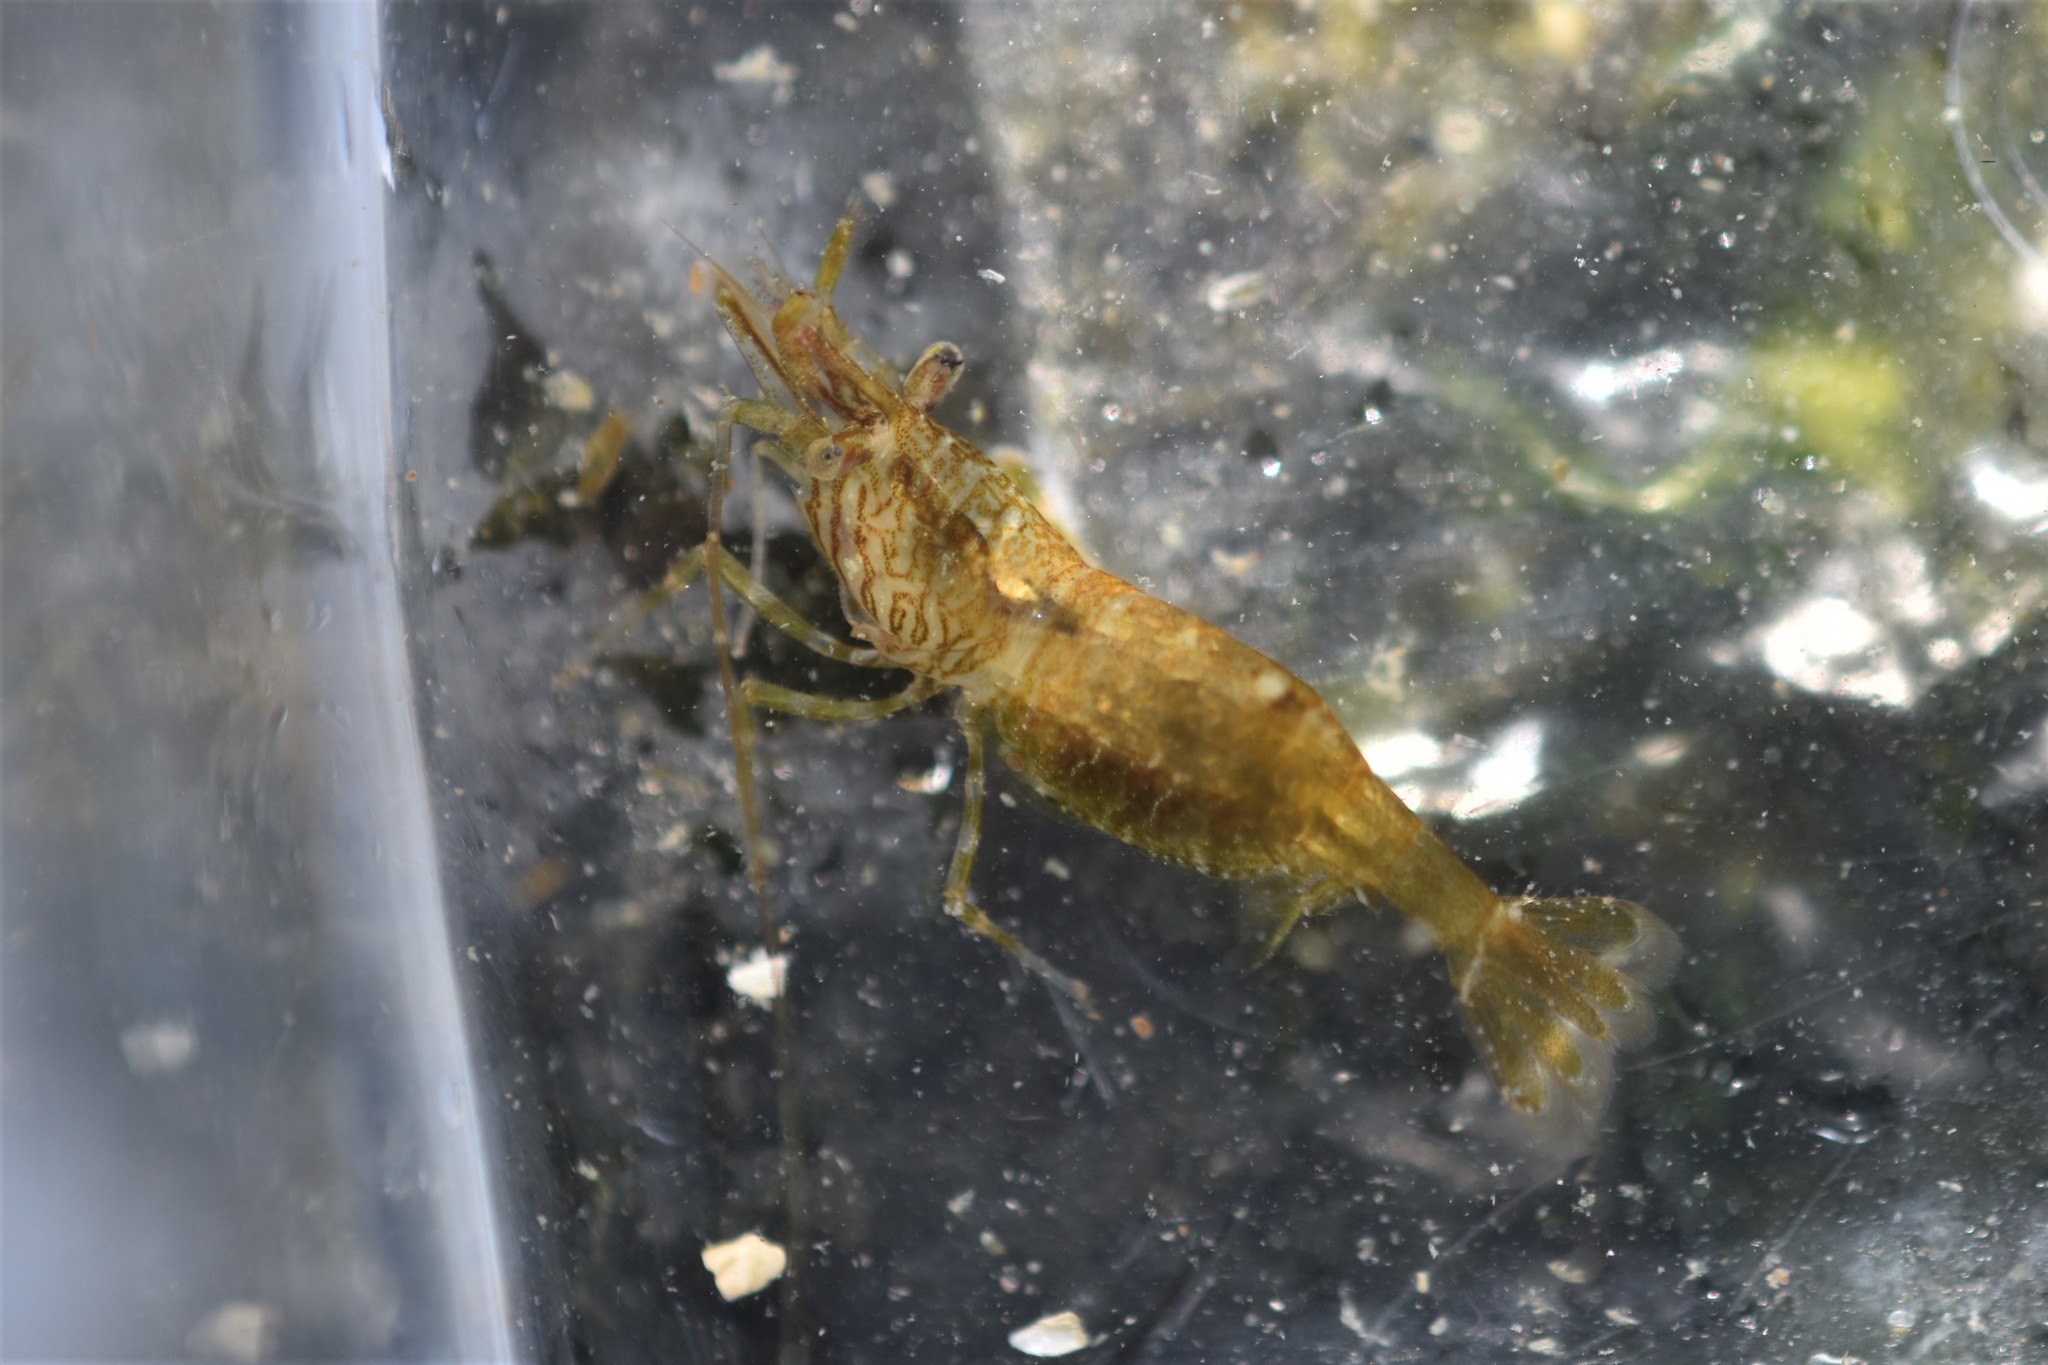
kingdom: Animalia
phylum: Arthropoda
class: Malacostraca
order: Decapoda
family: Thoridae
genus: Heptacarpus
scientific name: Heptacarpus sitchensis
